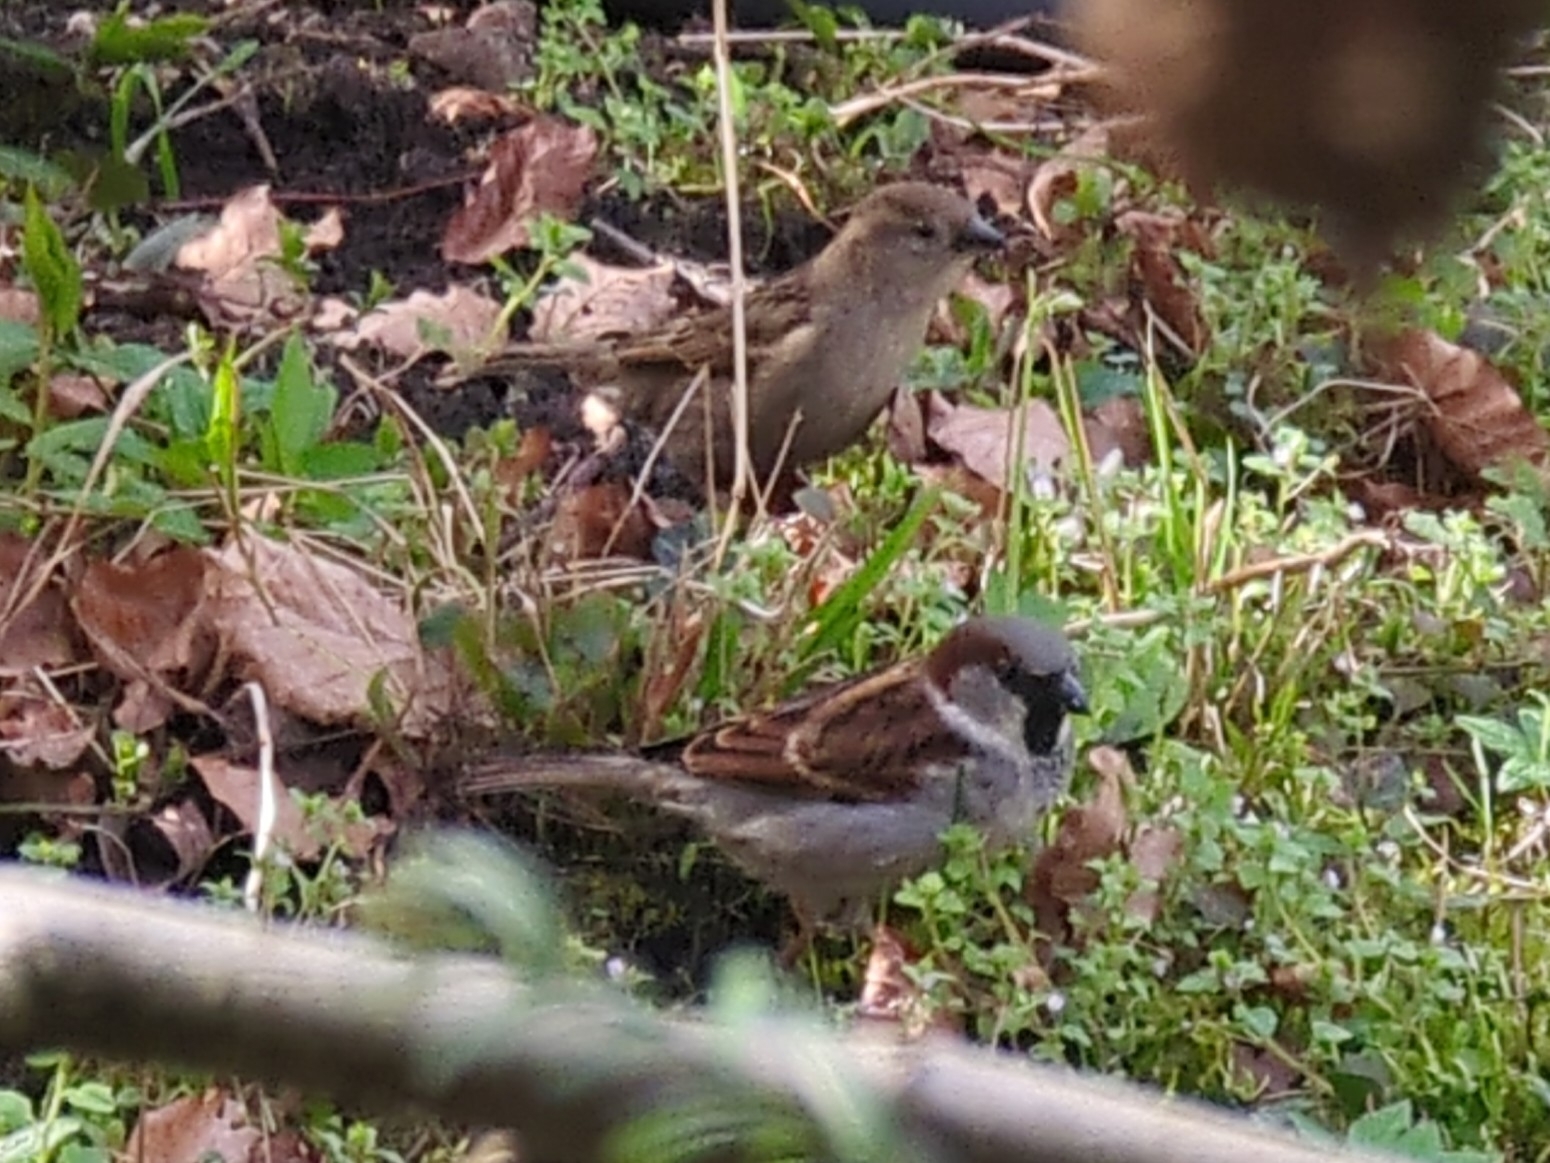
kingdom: Animalia
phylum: Chordata
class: Aves
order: Passeriformes
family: Passeridae
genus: Passer
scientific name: Passer domesticus
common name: House sparrow
